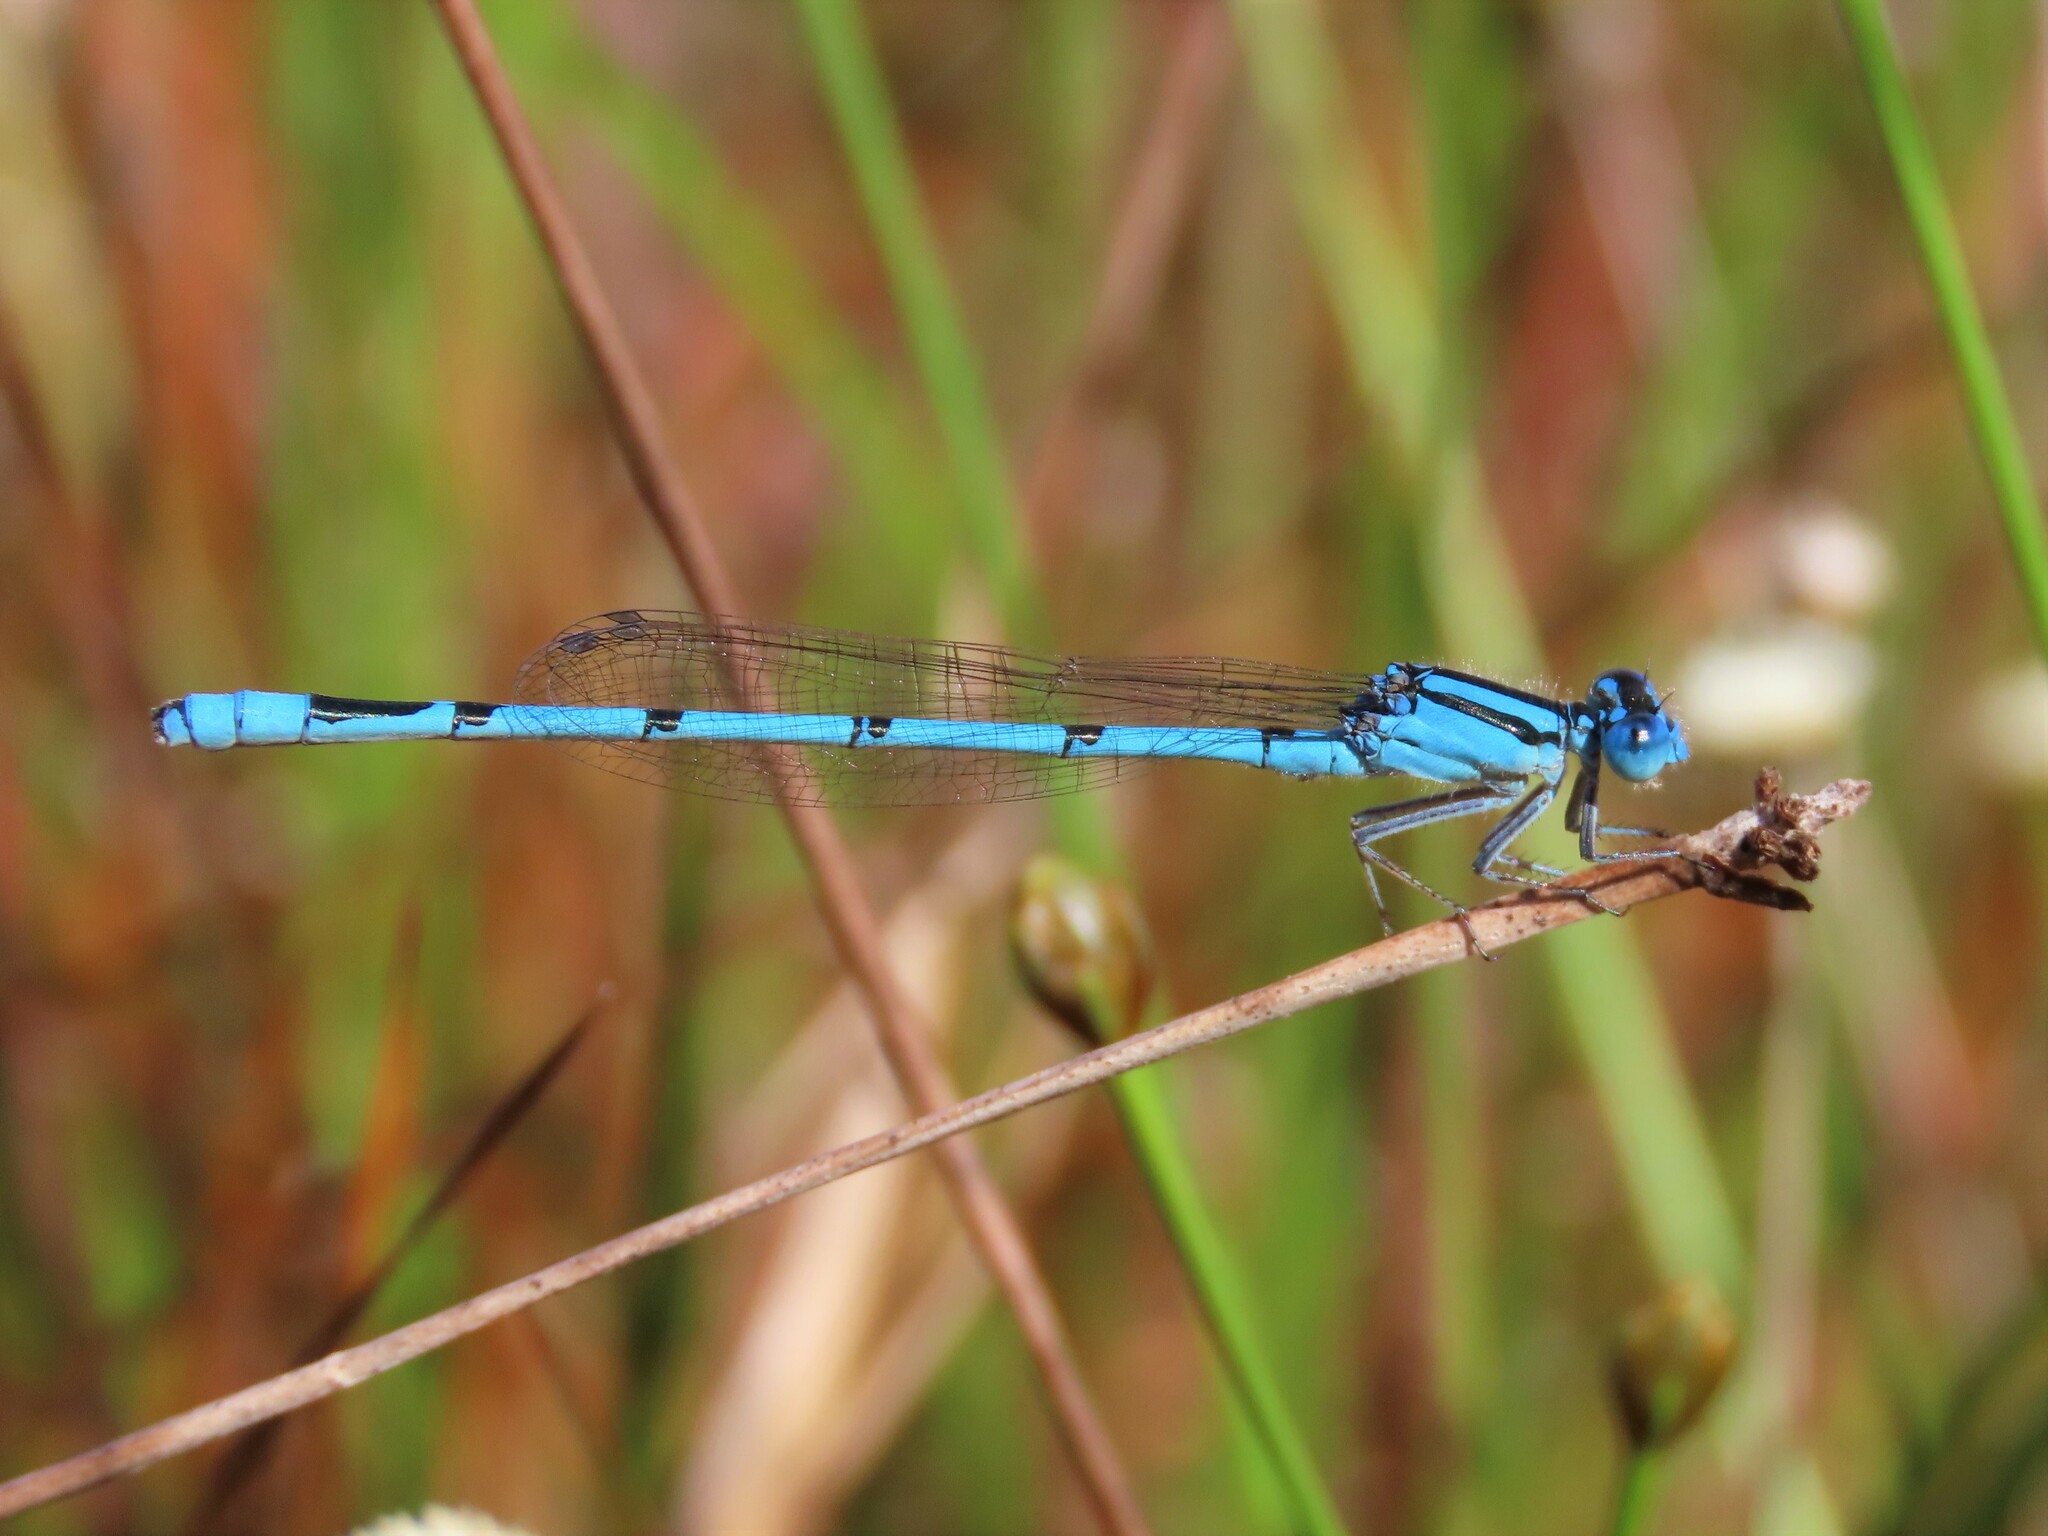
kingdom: Animalia
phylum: Arthropoda
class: Insecta
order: Odonata
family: Coenagrionidae
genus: Enallagma
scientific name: Enallagma doubledayi
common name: Atlantic bluet
